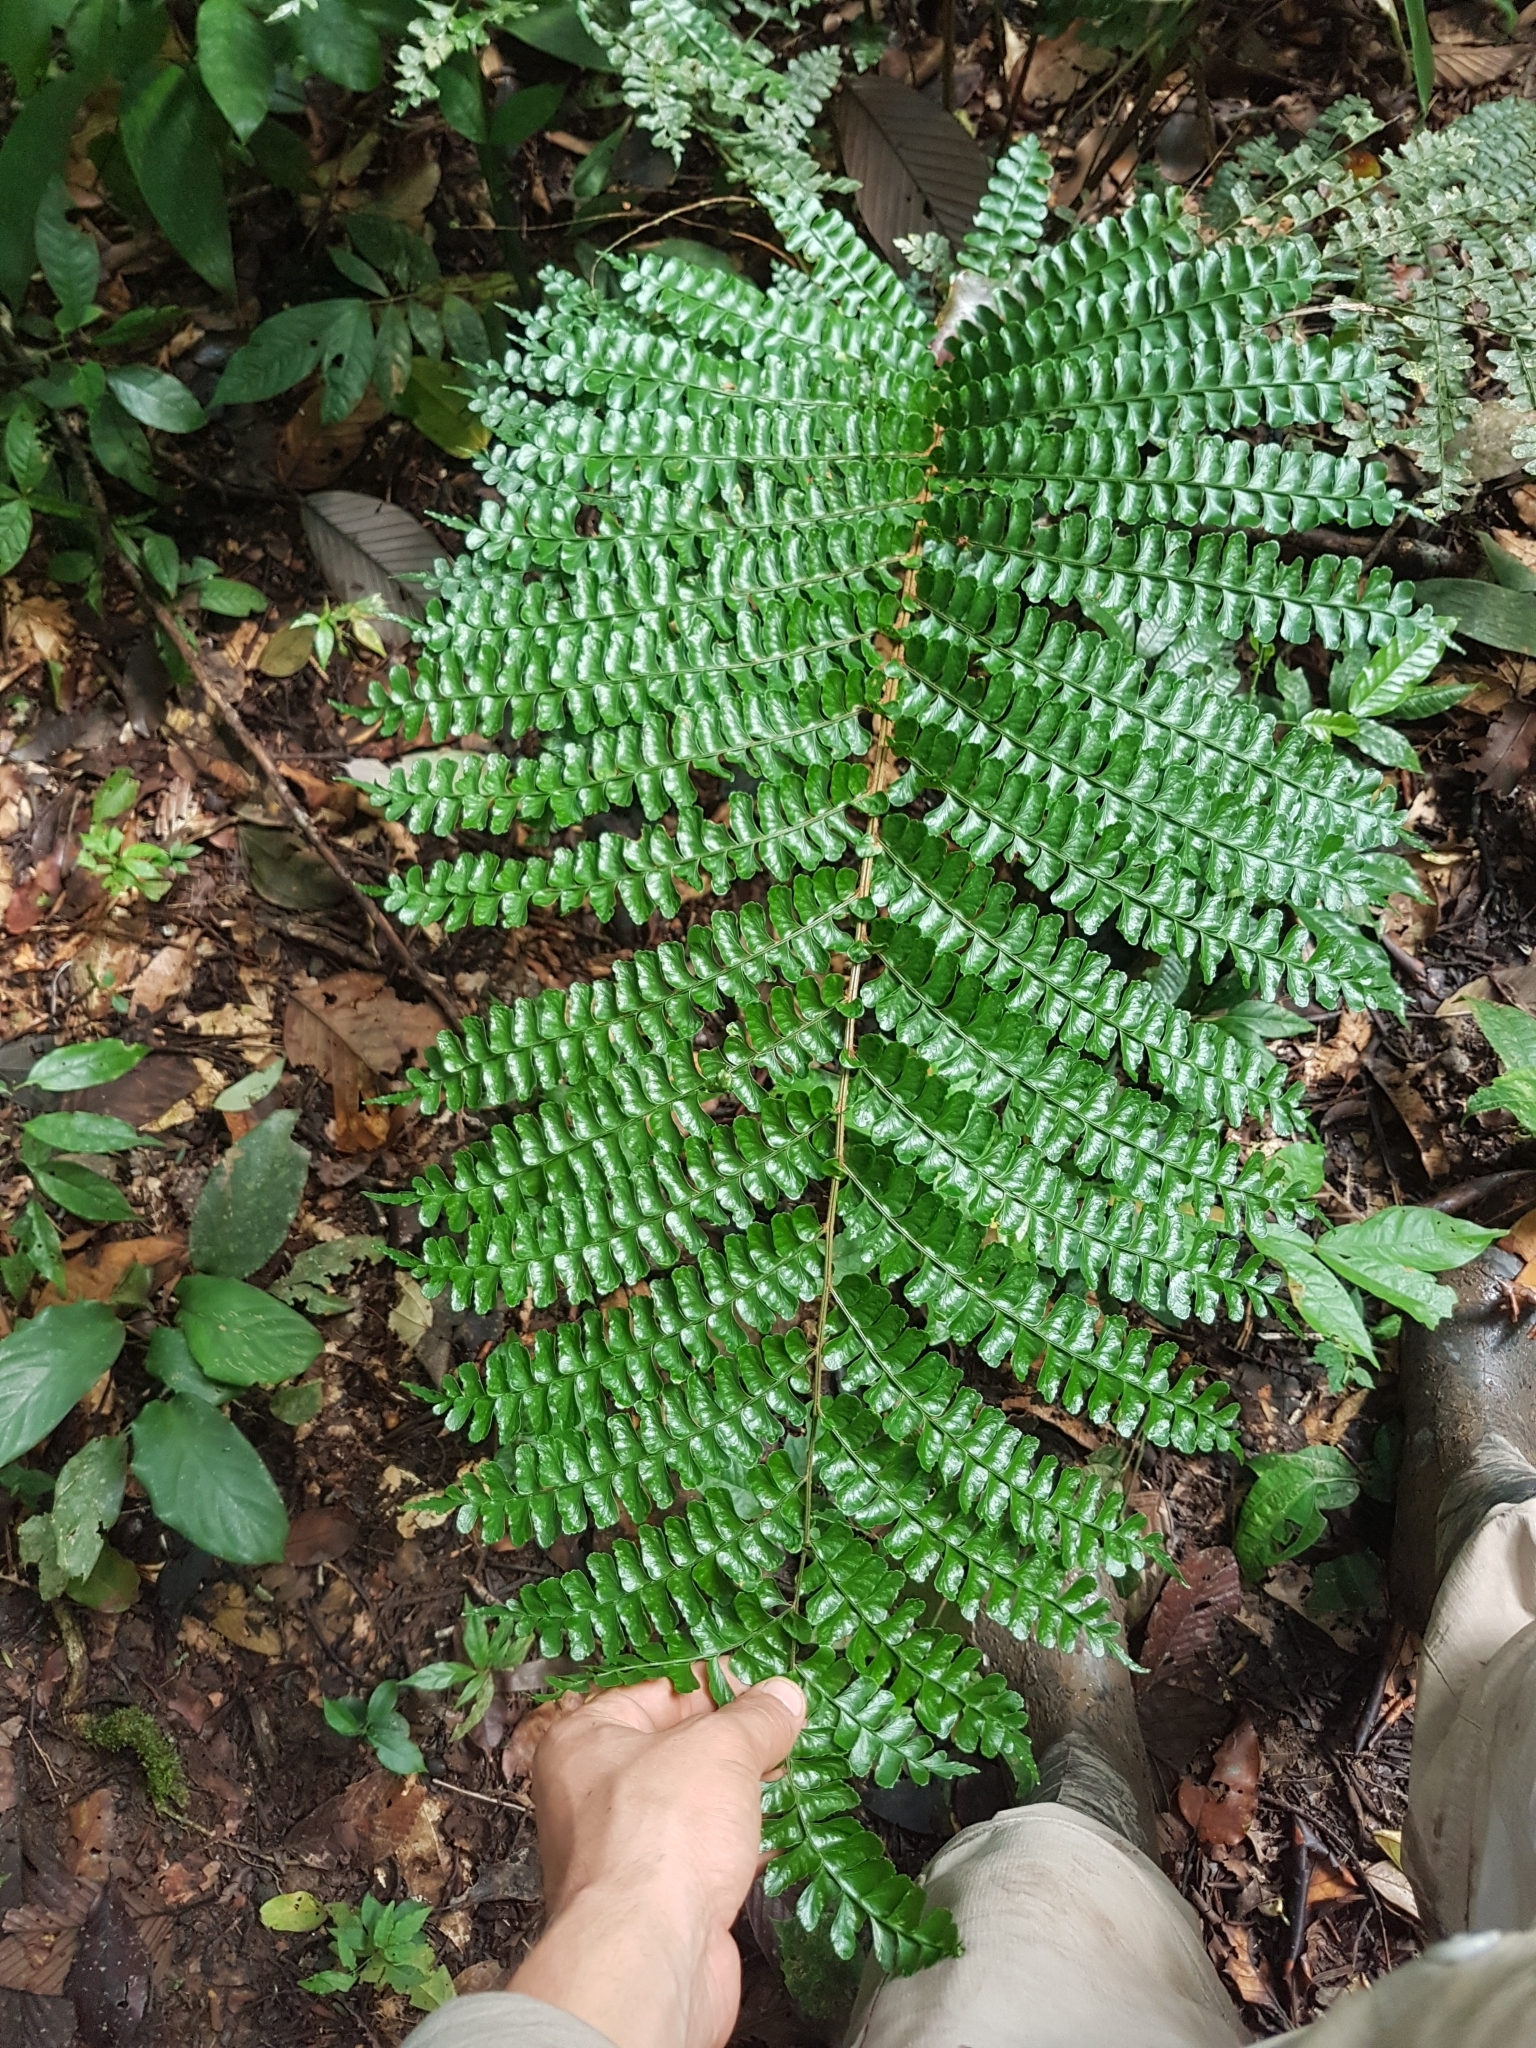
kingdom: Plantae
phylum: Tracheophyta
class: Polypodiopsida
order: Polypodiales
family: Didymochlaenaceae
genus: Didymochlaena
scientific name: Didymochlaena truncatula
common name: Mahogany fern
